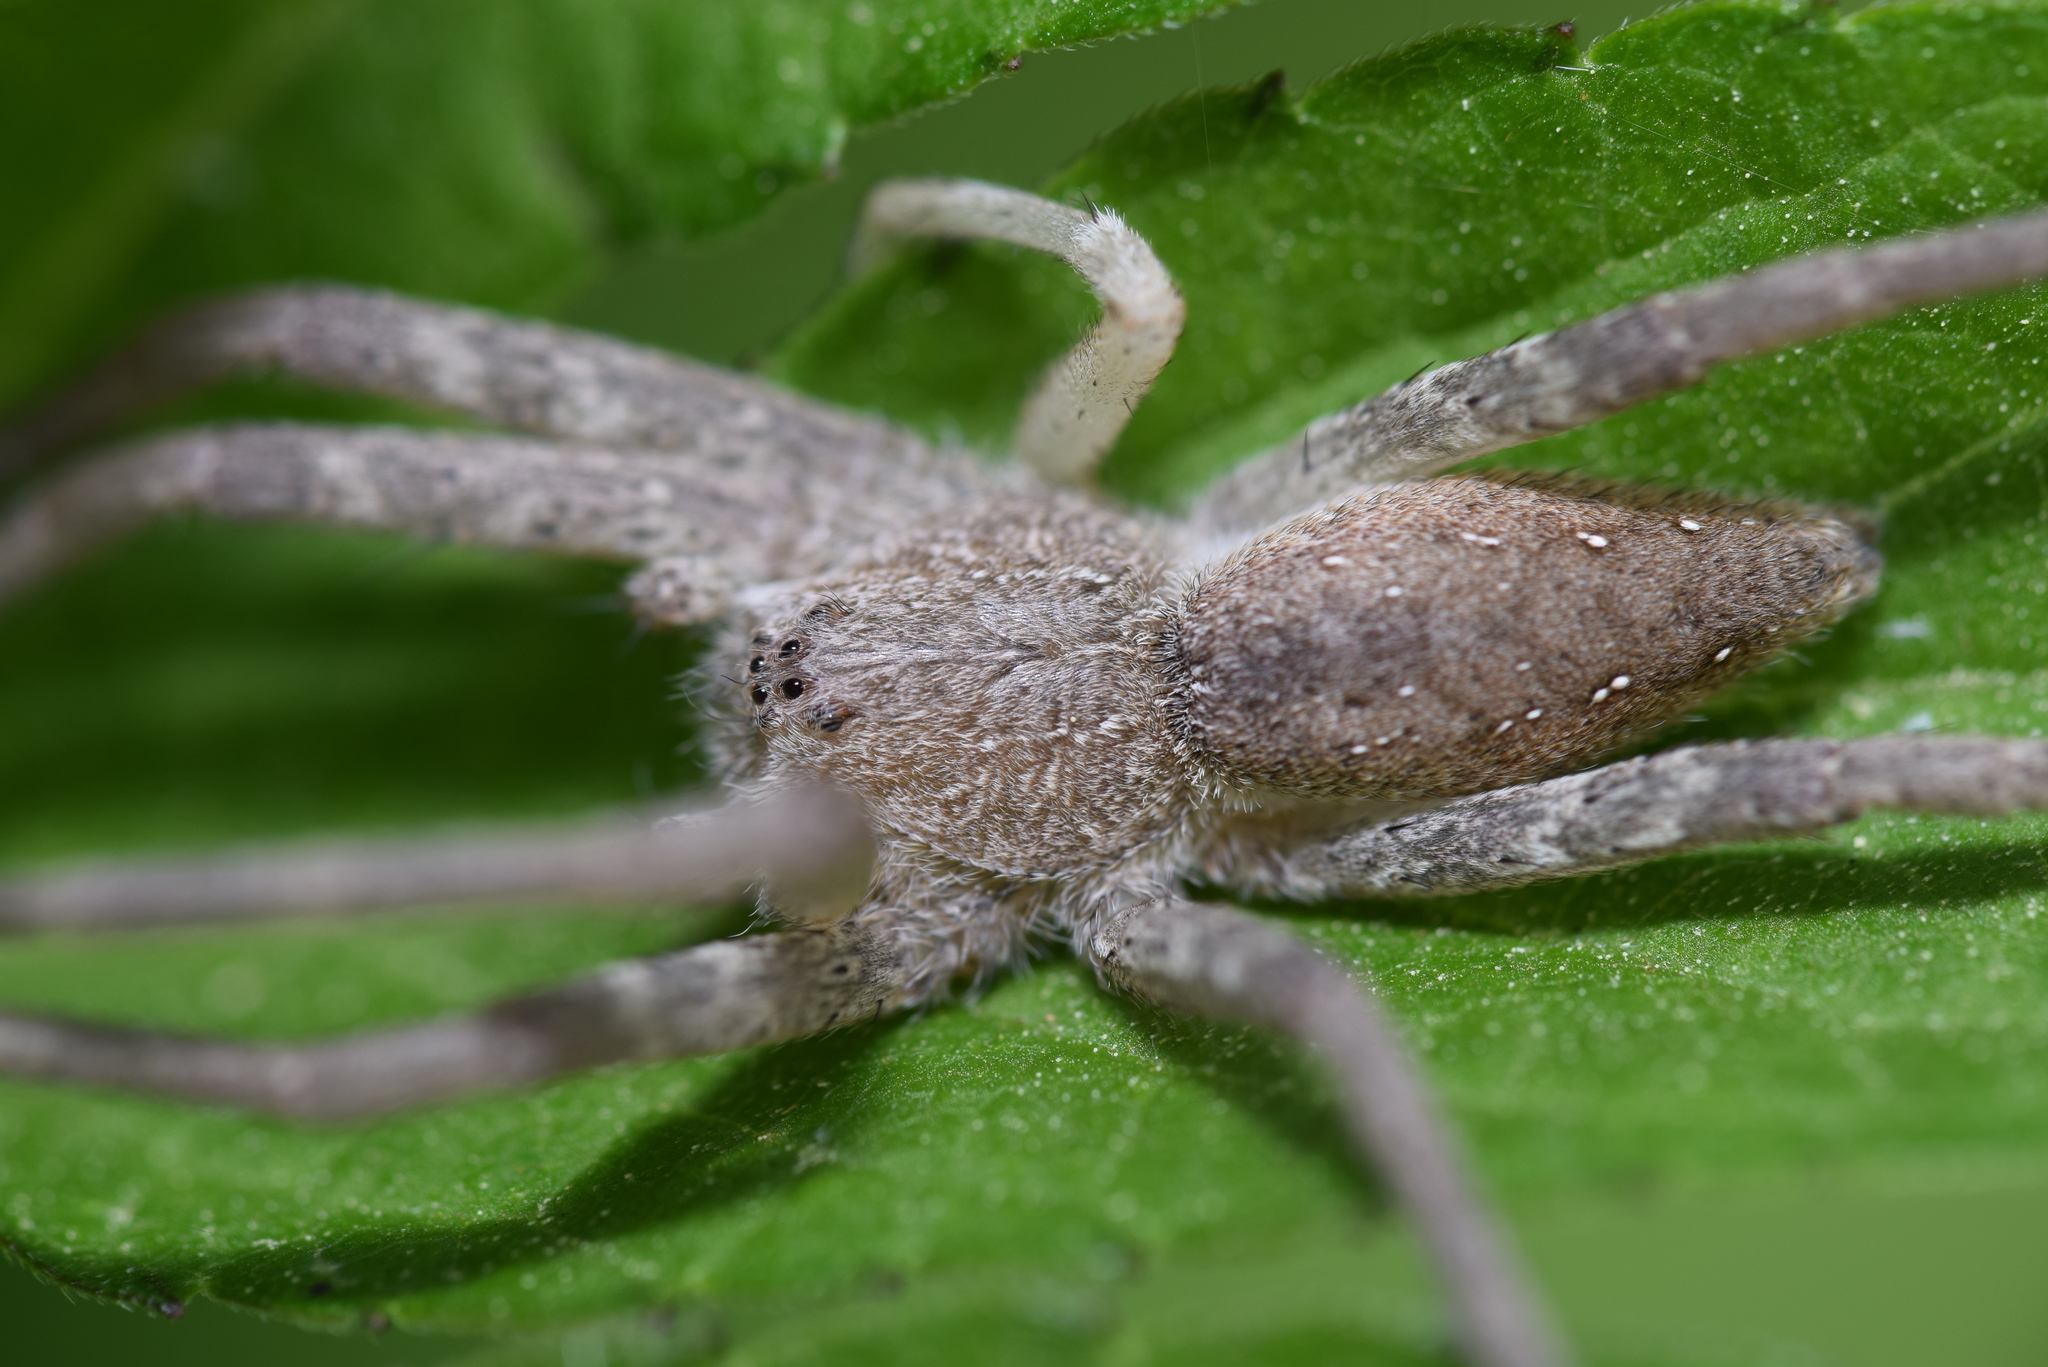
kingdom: Animalia
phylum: Arthropoda
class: Arachnida
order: Araneae
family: Pisauridae
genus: Pisaurina
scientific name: Pisaurina mira
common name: American nursery web spider
